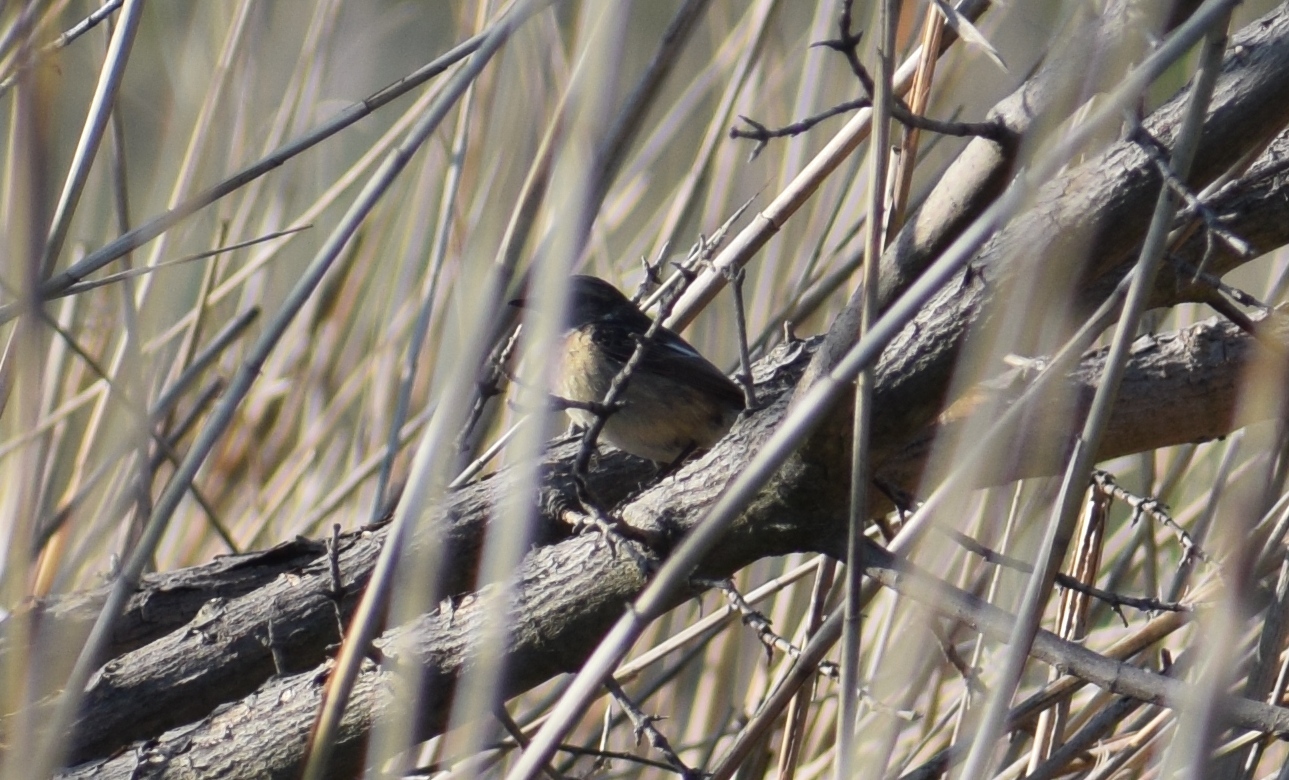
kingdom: Animalia
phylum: Chordata
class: Aves
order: Passeriformes
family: Muscicapidae
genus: Saxicola
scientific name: Saxicola rubicola
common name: European stonechat
